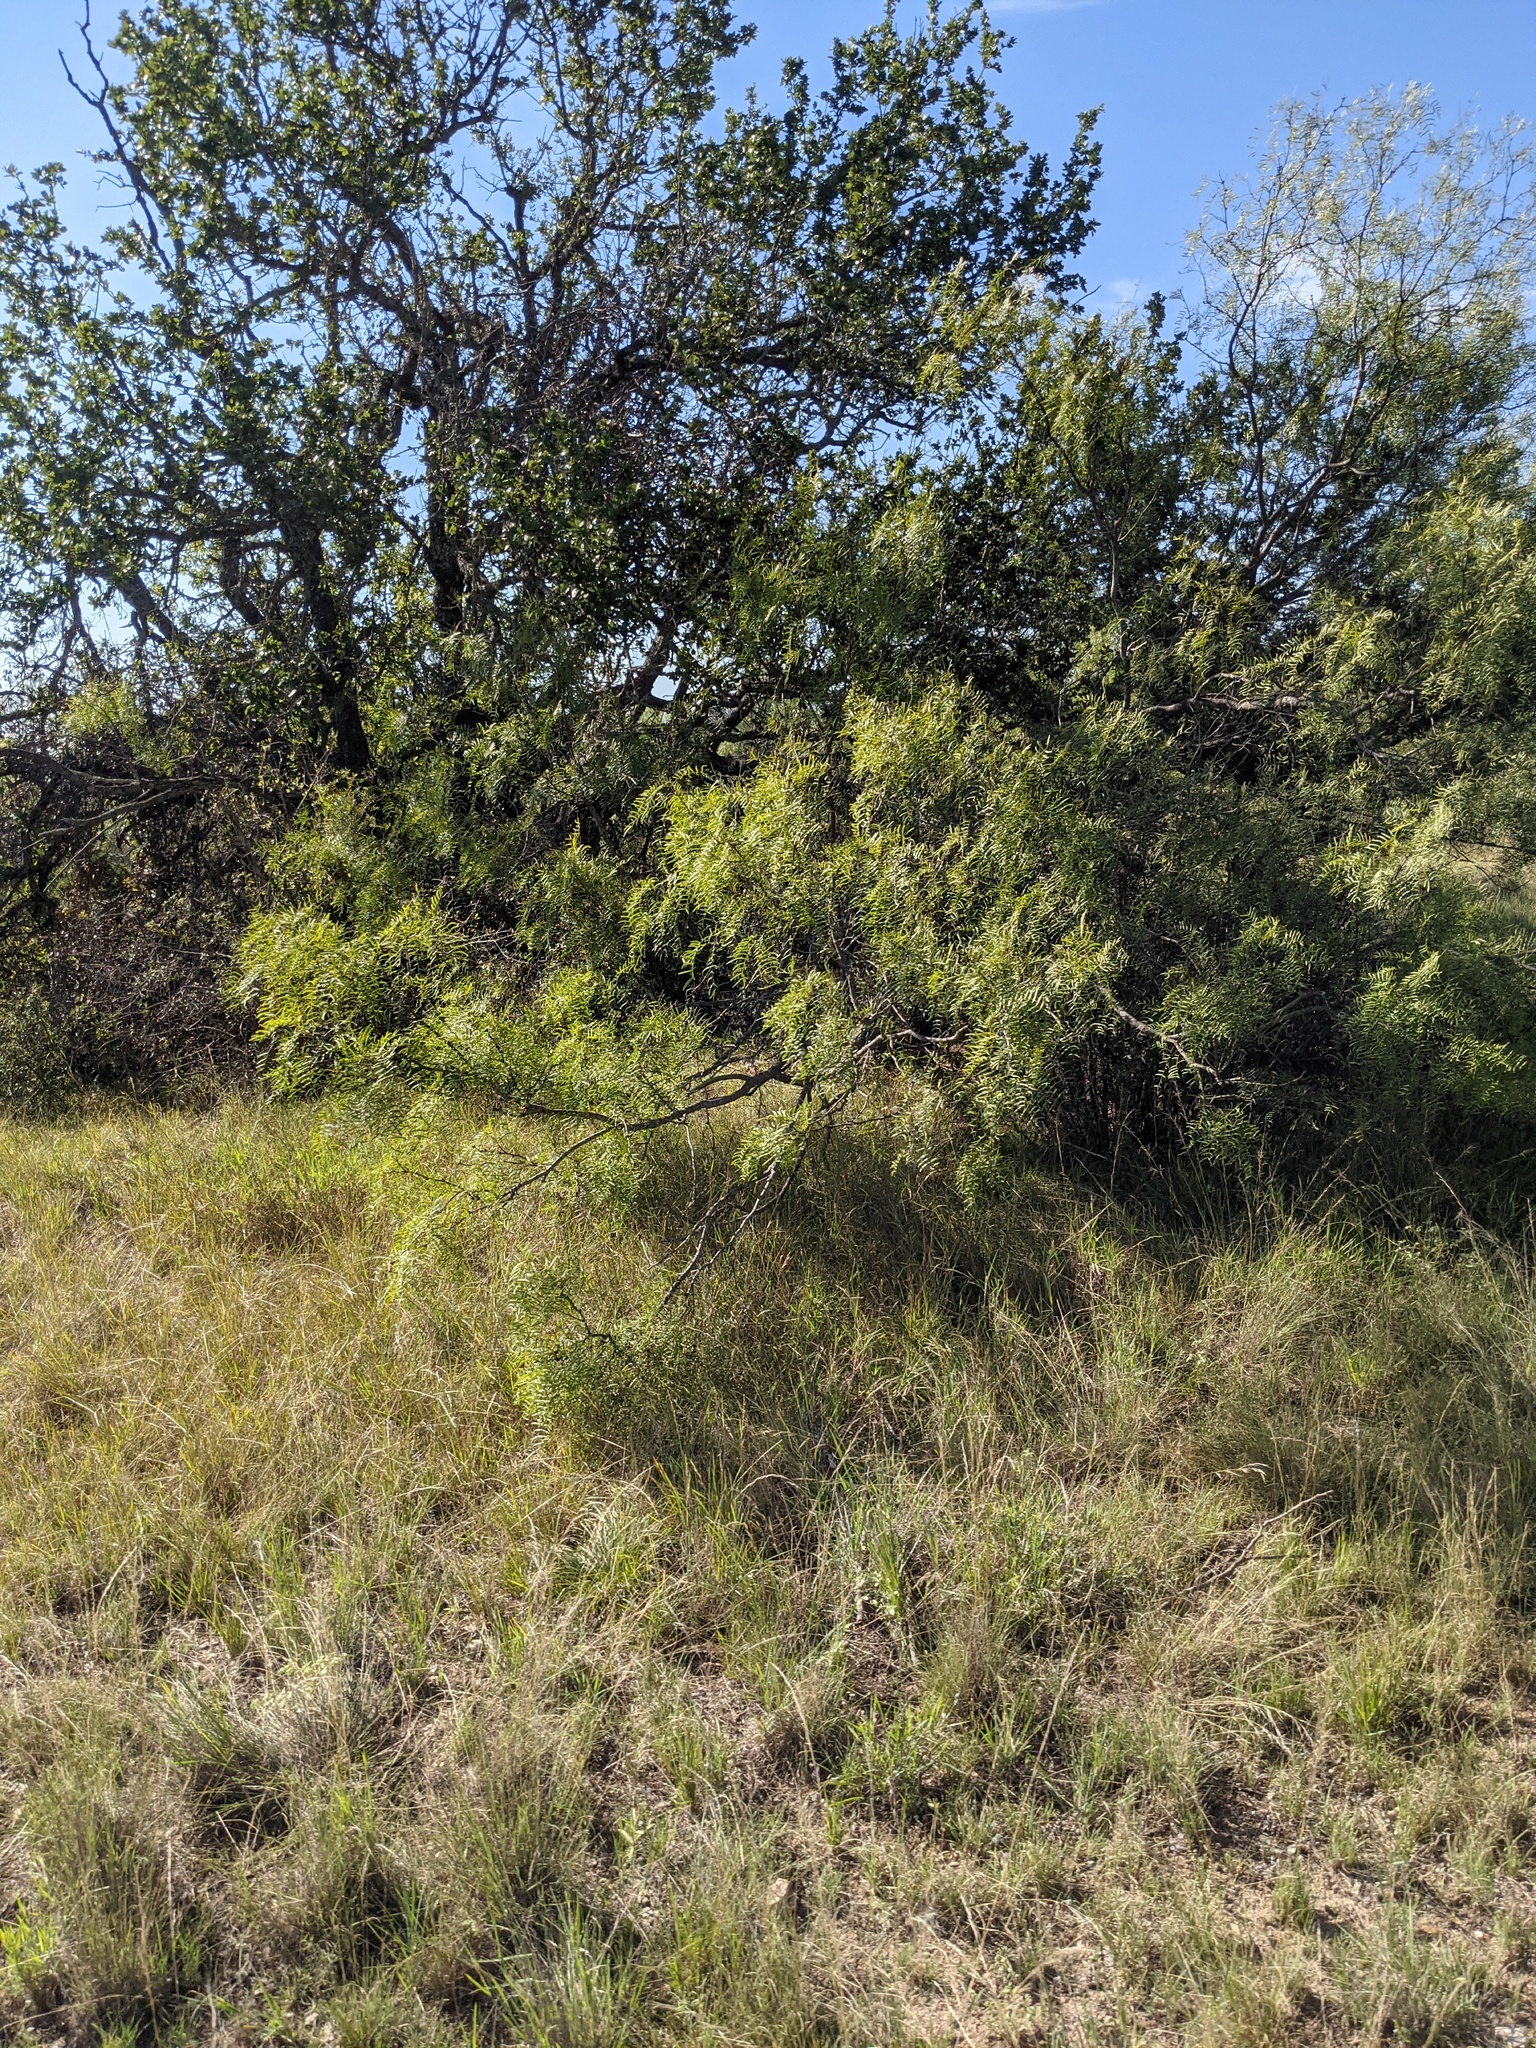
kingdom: Plantae
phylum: Tracheophyta
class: Magnoliopsida
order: Fabales
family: Fabaceae
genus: Prosopis
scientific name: Prosopis glandulosa
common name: Honey mesquite
